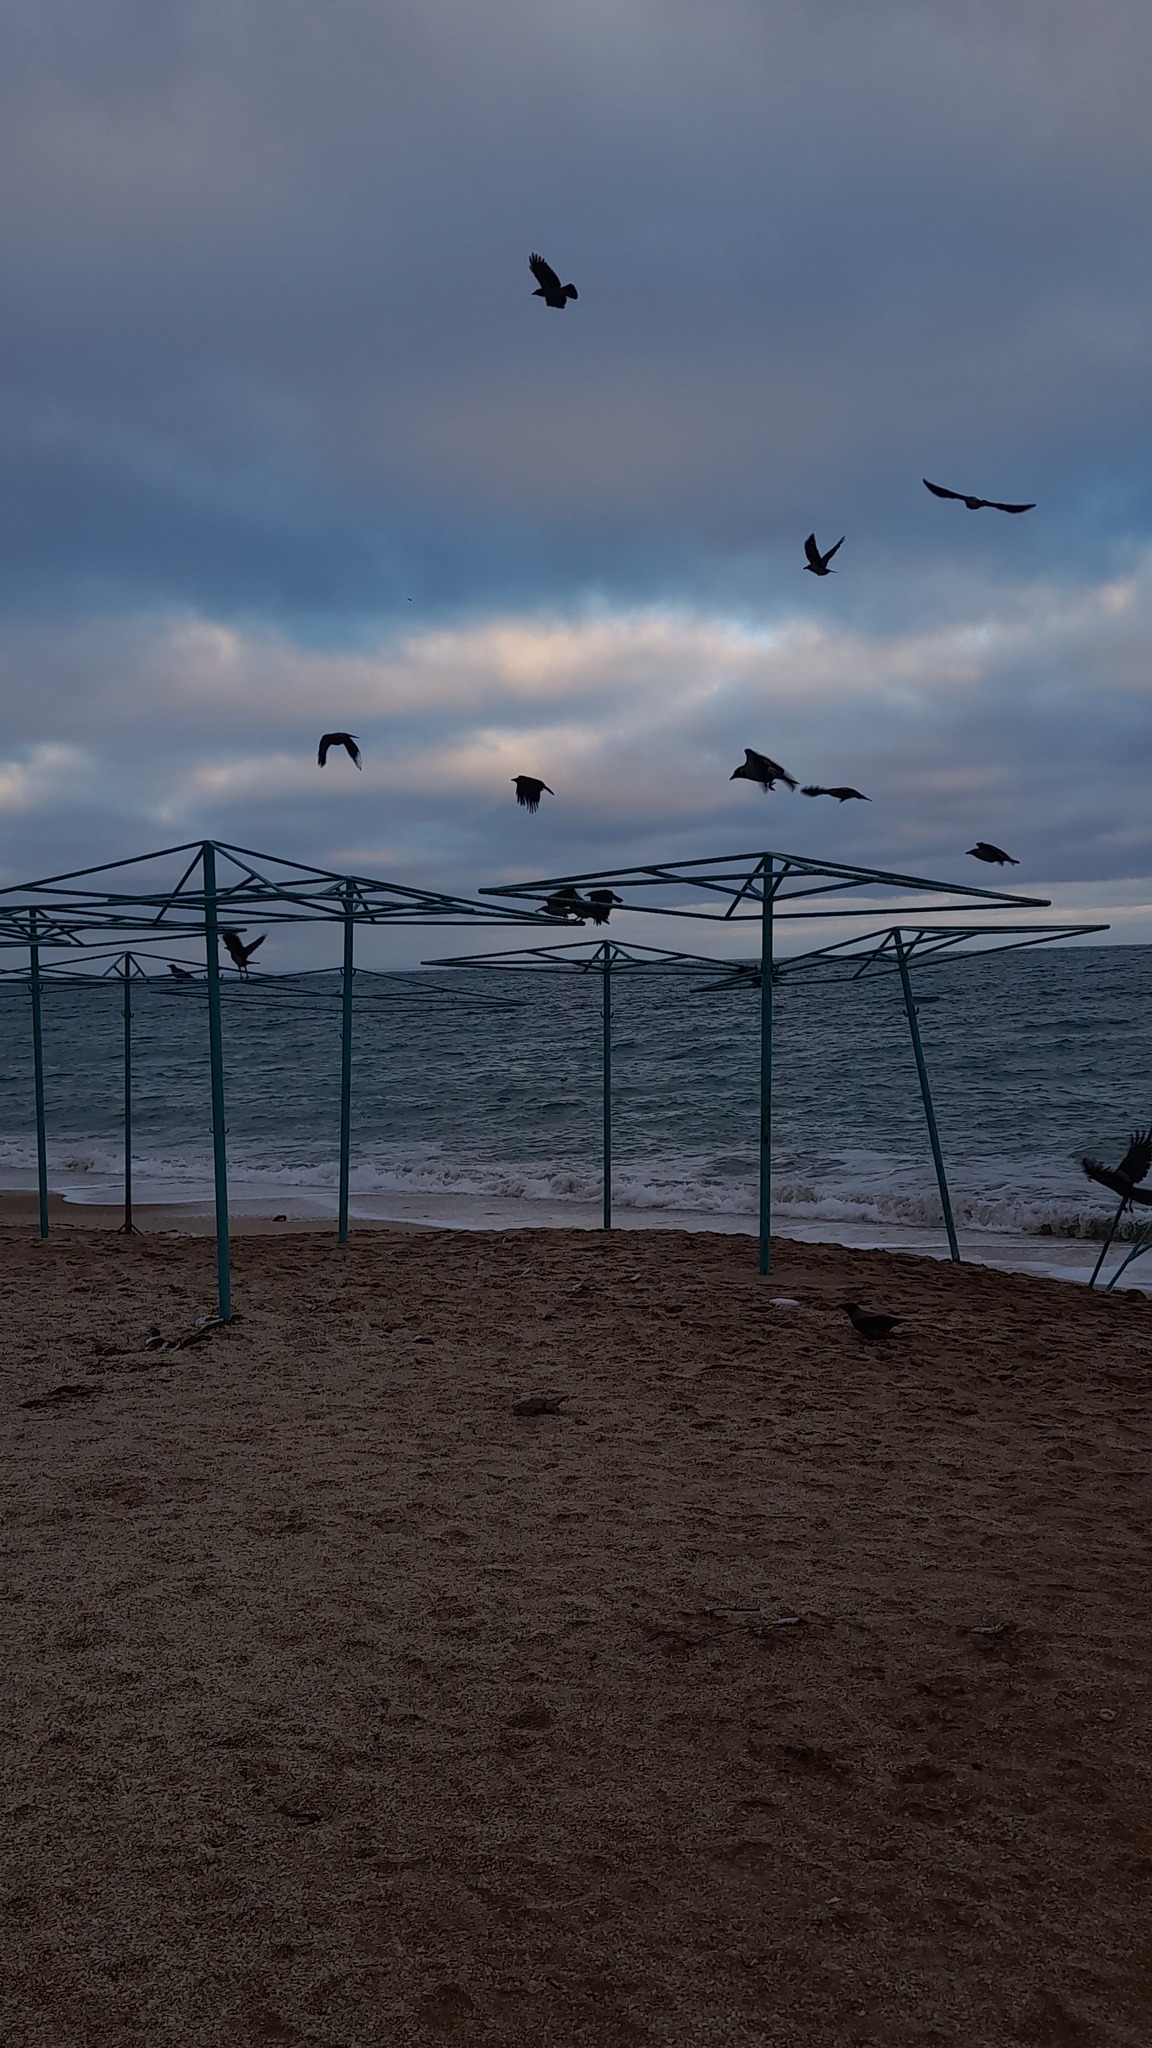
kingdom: Animalia
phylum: Chordata
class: Aves
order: Passeriformes
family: Corvidae
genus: Corvus
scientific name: Corvus cornix
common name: Hooded crow
